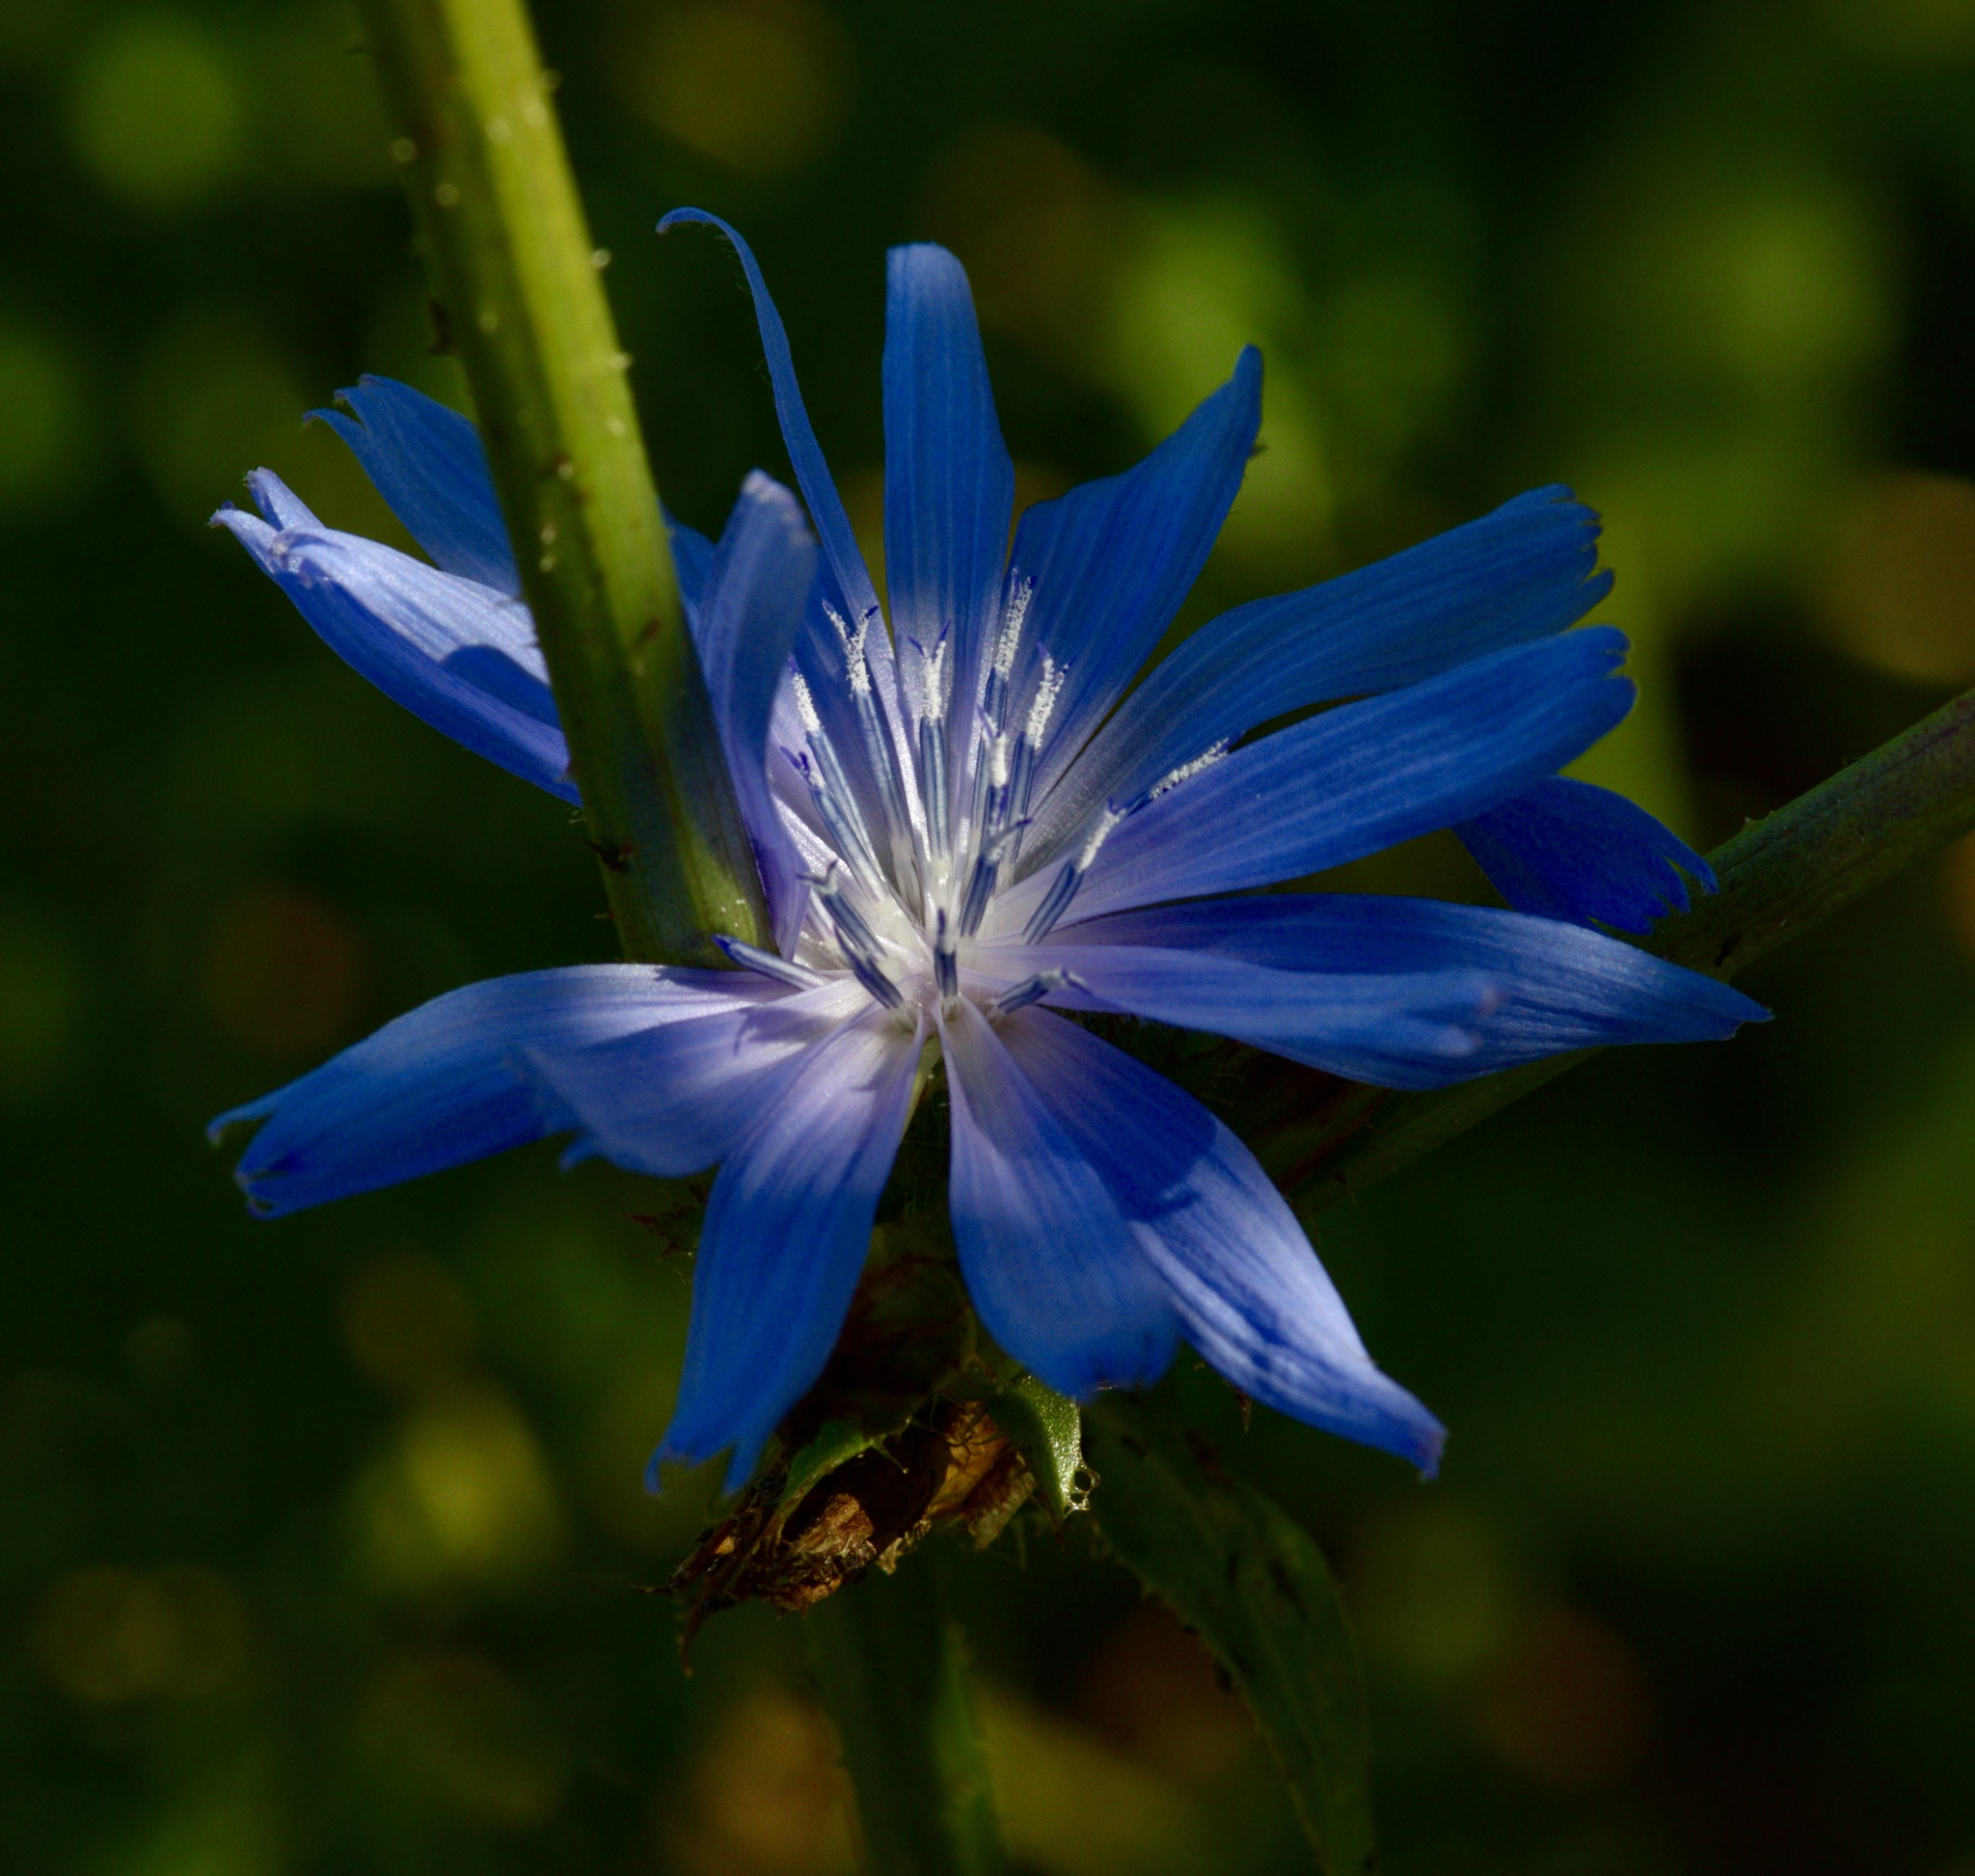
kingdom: Plantae
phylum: Tracheophyta
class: Magnoliopsida
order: Asterales
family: Asteraceae
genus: Cichorium
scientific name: Cichorium intybus
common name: Chicory
